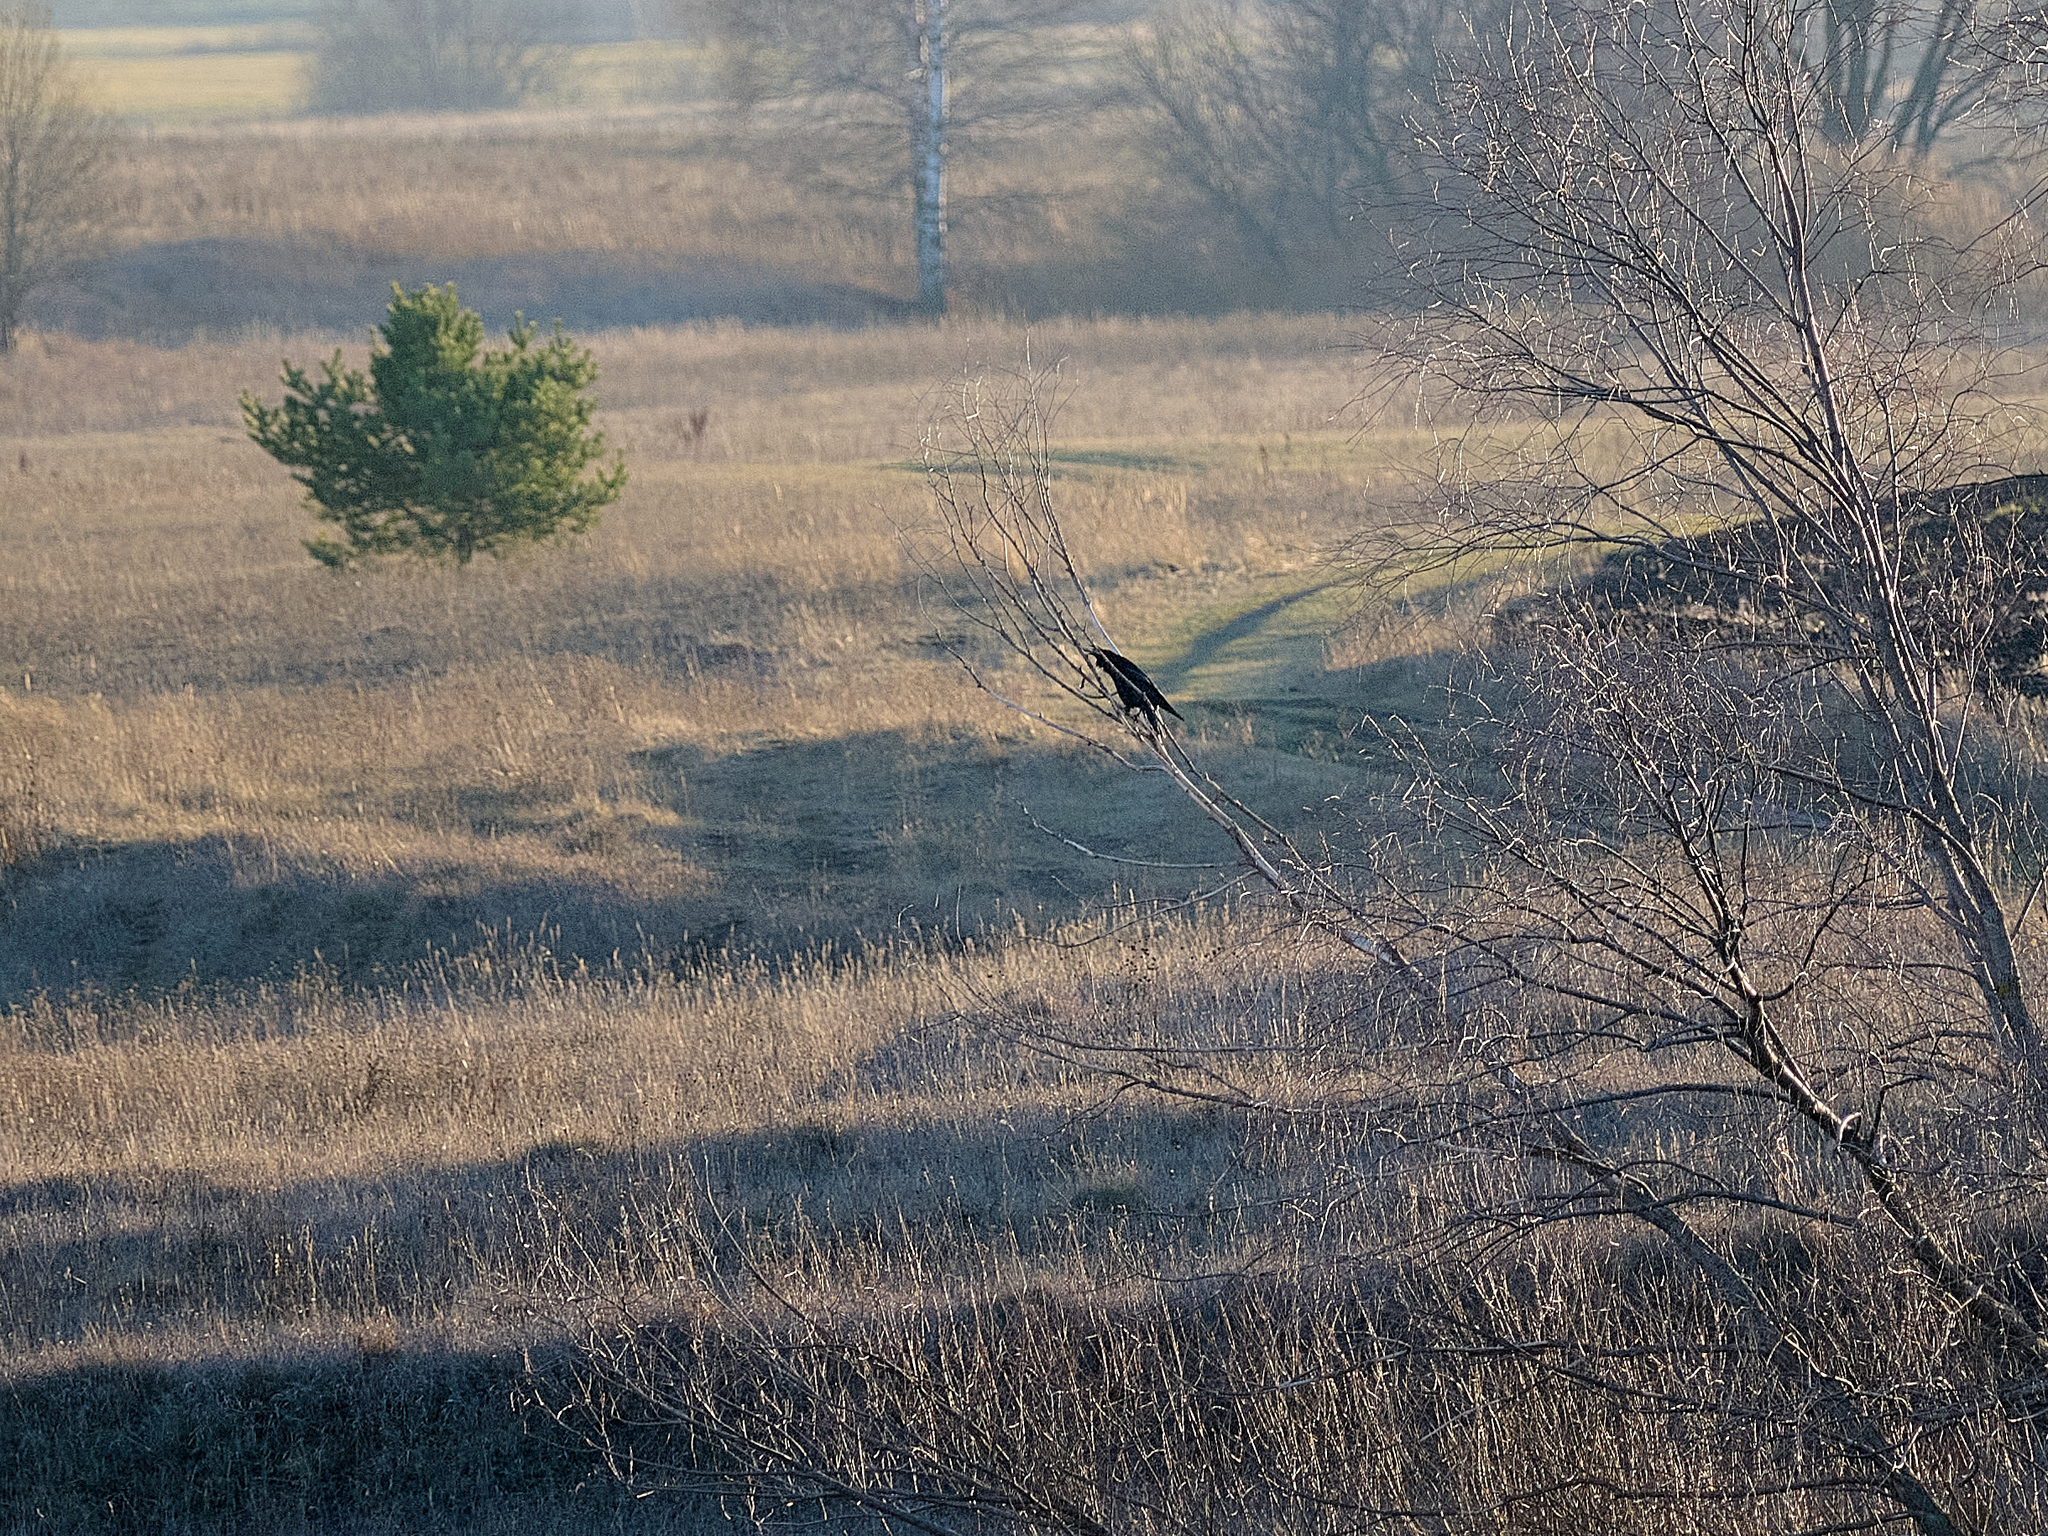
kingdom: Animalia
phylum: Chordata
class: Aves
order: Passeriformes
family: Corvidae
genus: Corvus
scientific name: Corvus corax
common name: Common raven
